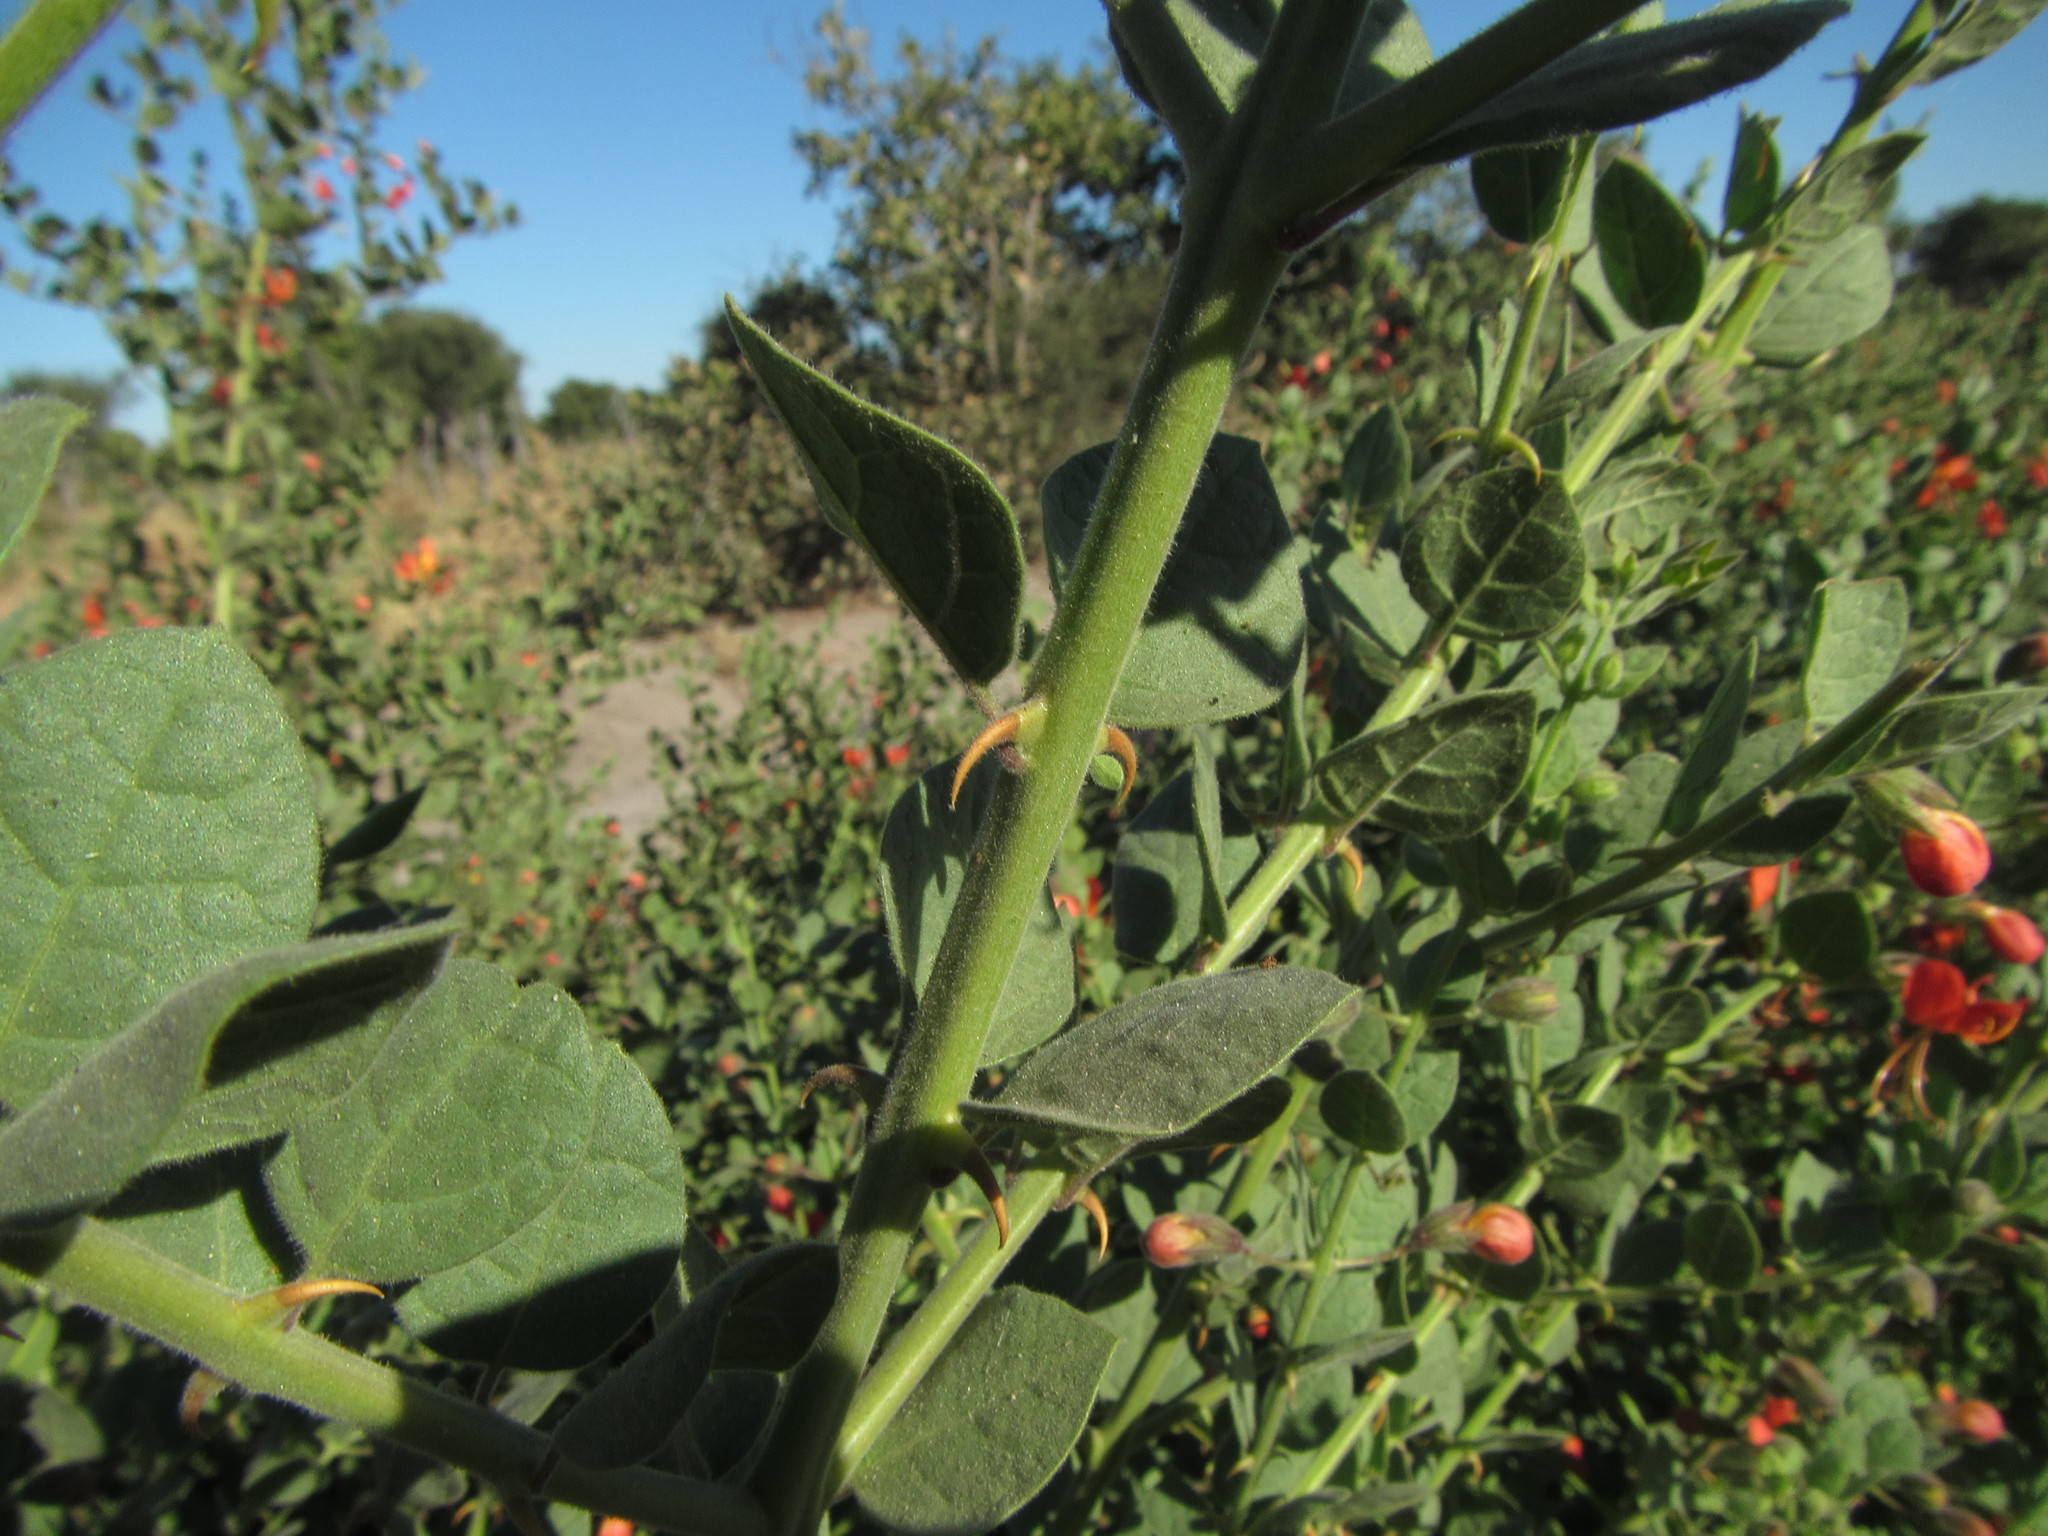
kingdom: Plantae
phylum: Tracheophyta
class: Magnoliopsida
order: Lamiales
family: Lamiaceae
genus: Kalaharia
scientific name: Kalaharia uncinata
